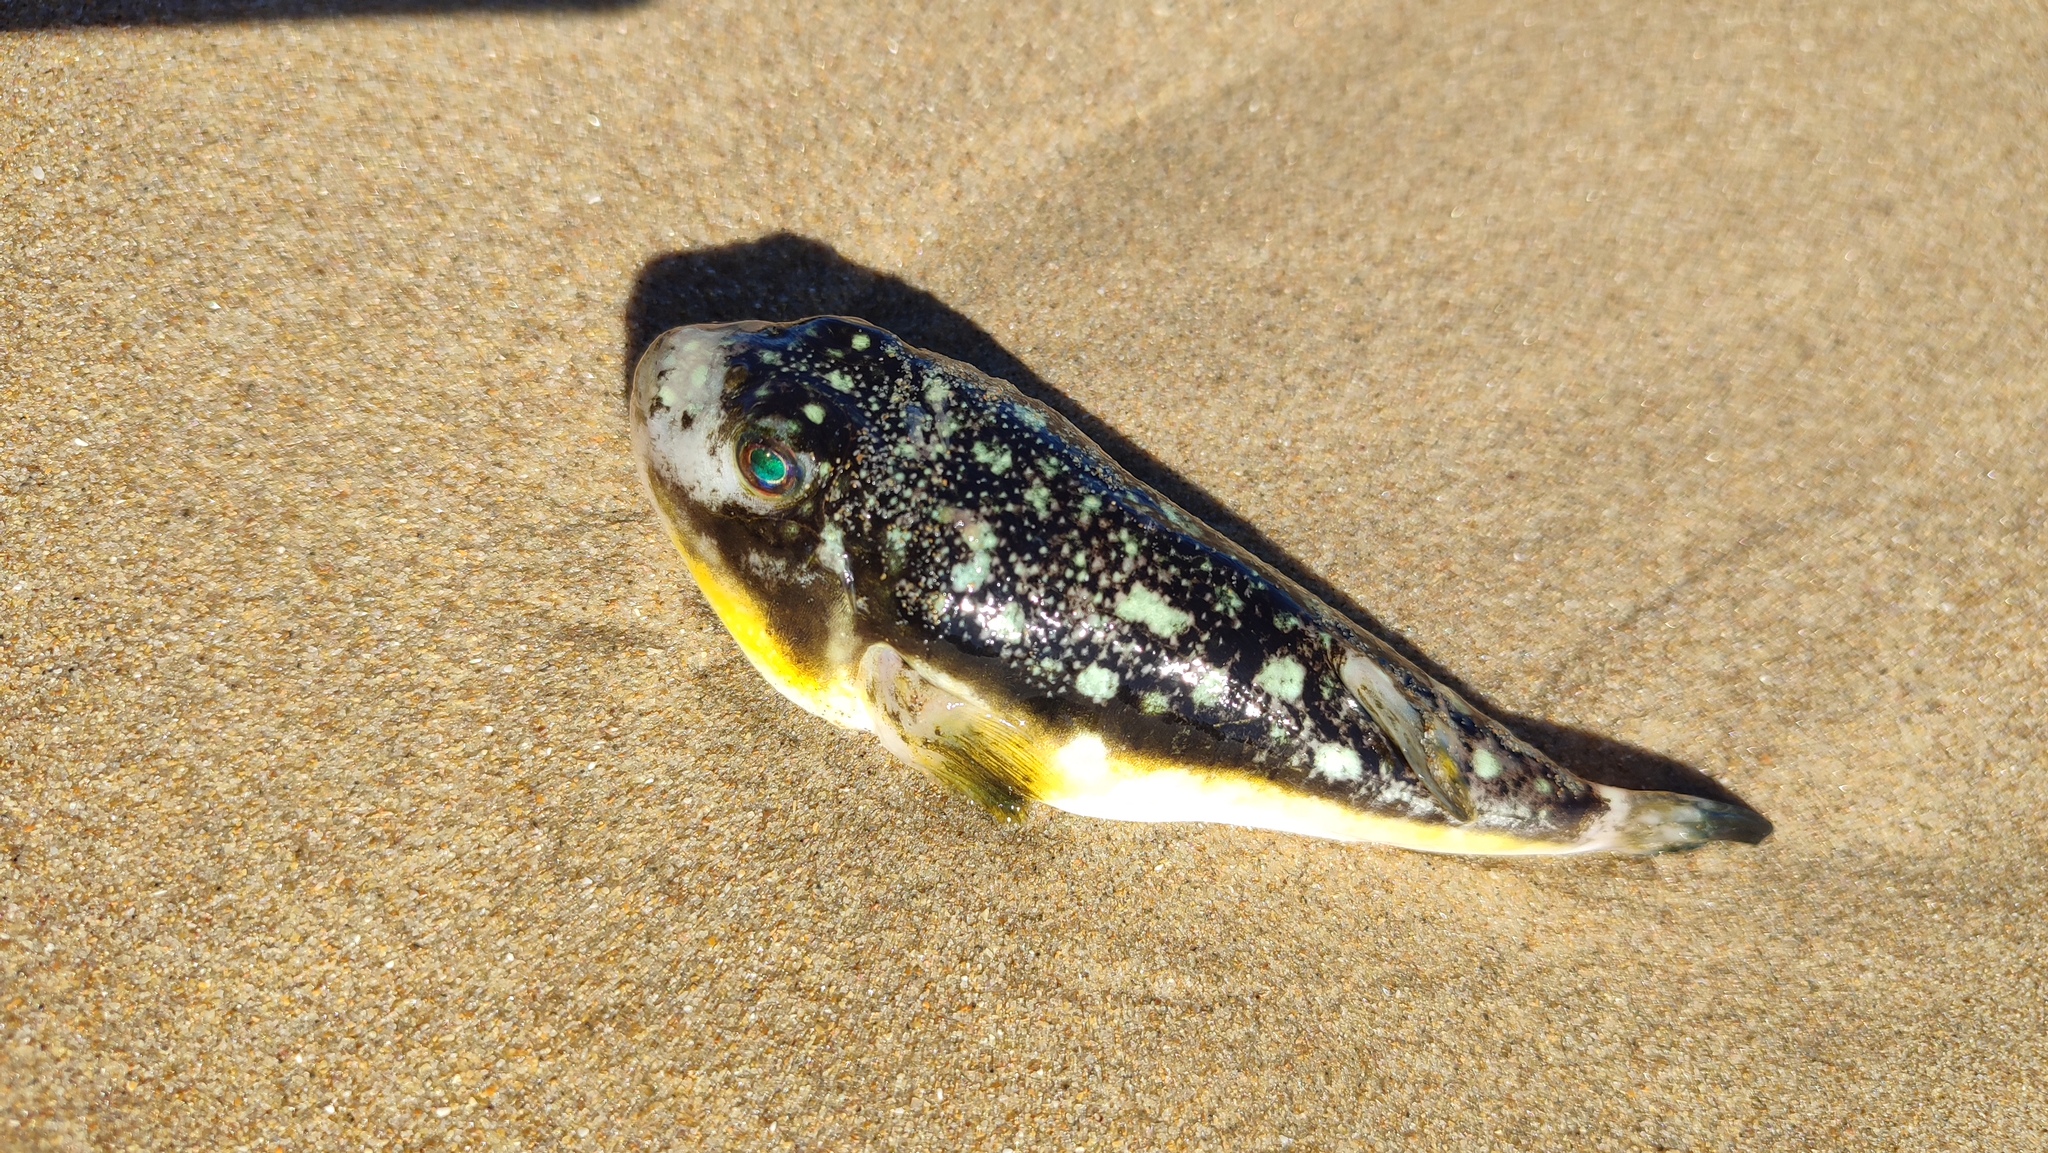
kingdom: Animalia
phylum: Chordata
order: Tetraodontiformes
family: Tetraodontidae
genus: Amblyrhynchote
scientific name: Amblyrhynchote honckenii
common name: Evileye blaasop
